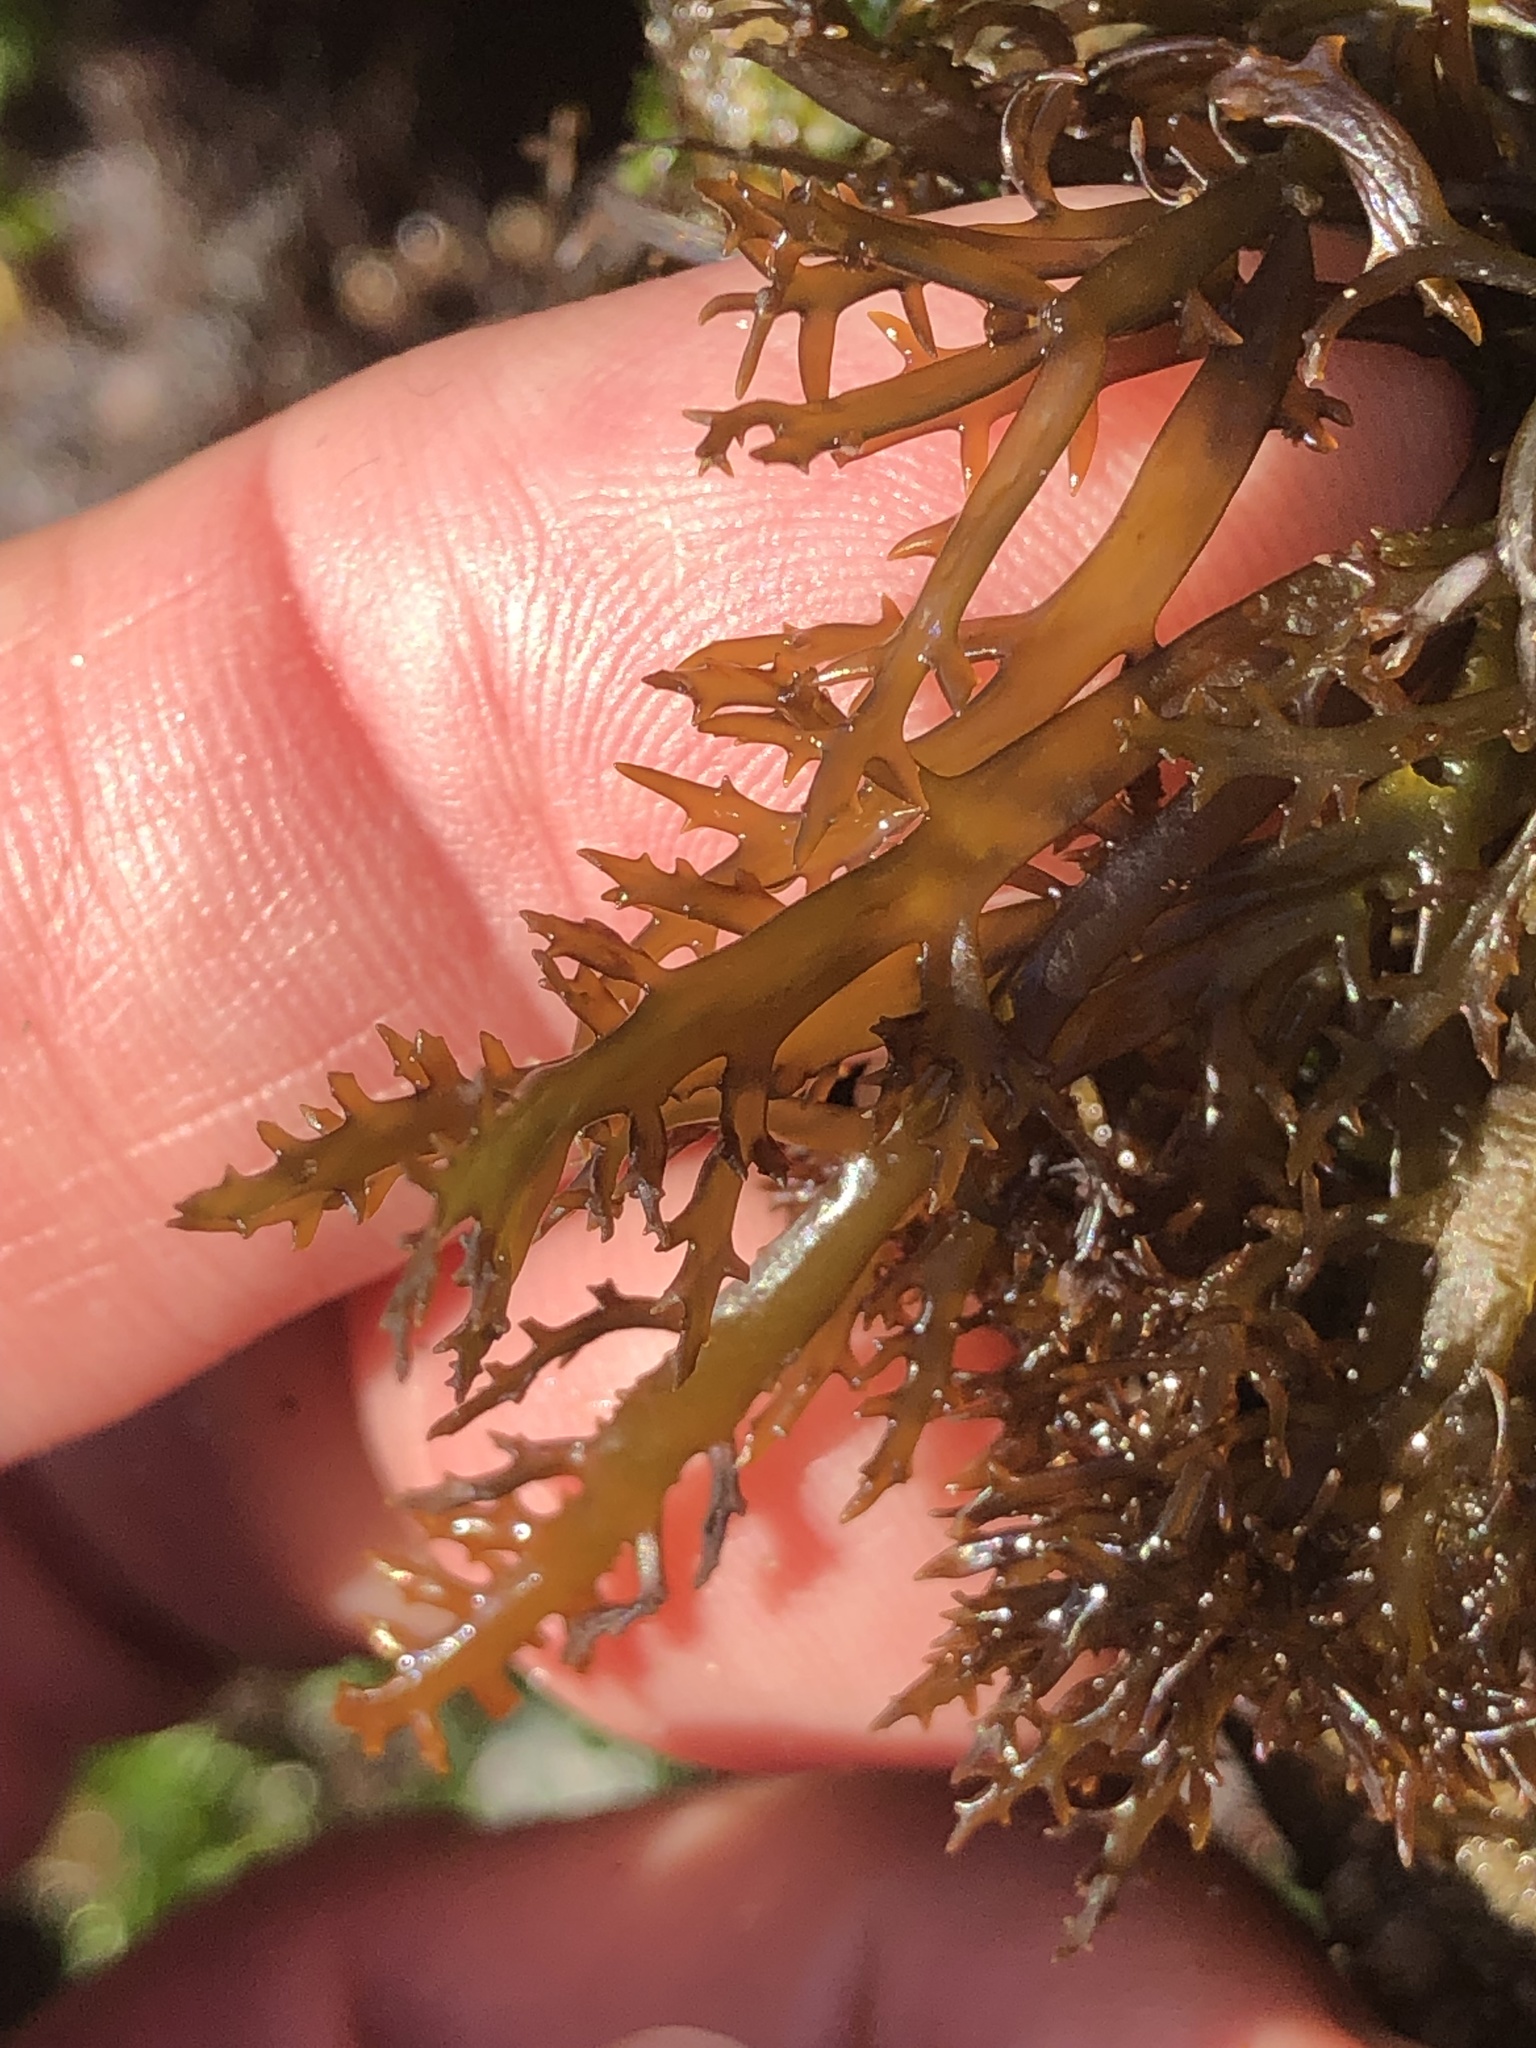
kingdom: Plantae
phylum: Rhodophyta
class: Florideophyceae
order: Gigartinales
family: Gigartinaceae
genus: Chondracanthus
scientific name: Chondracanthus canaliculatus
